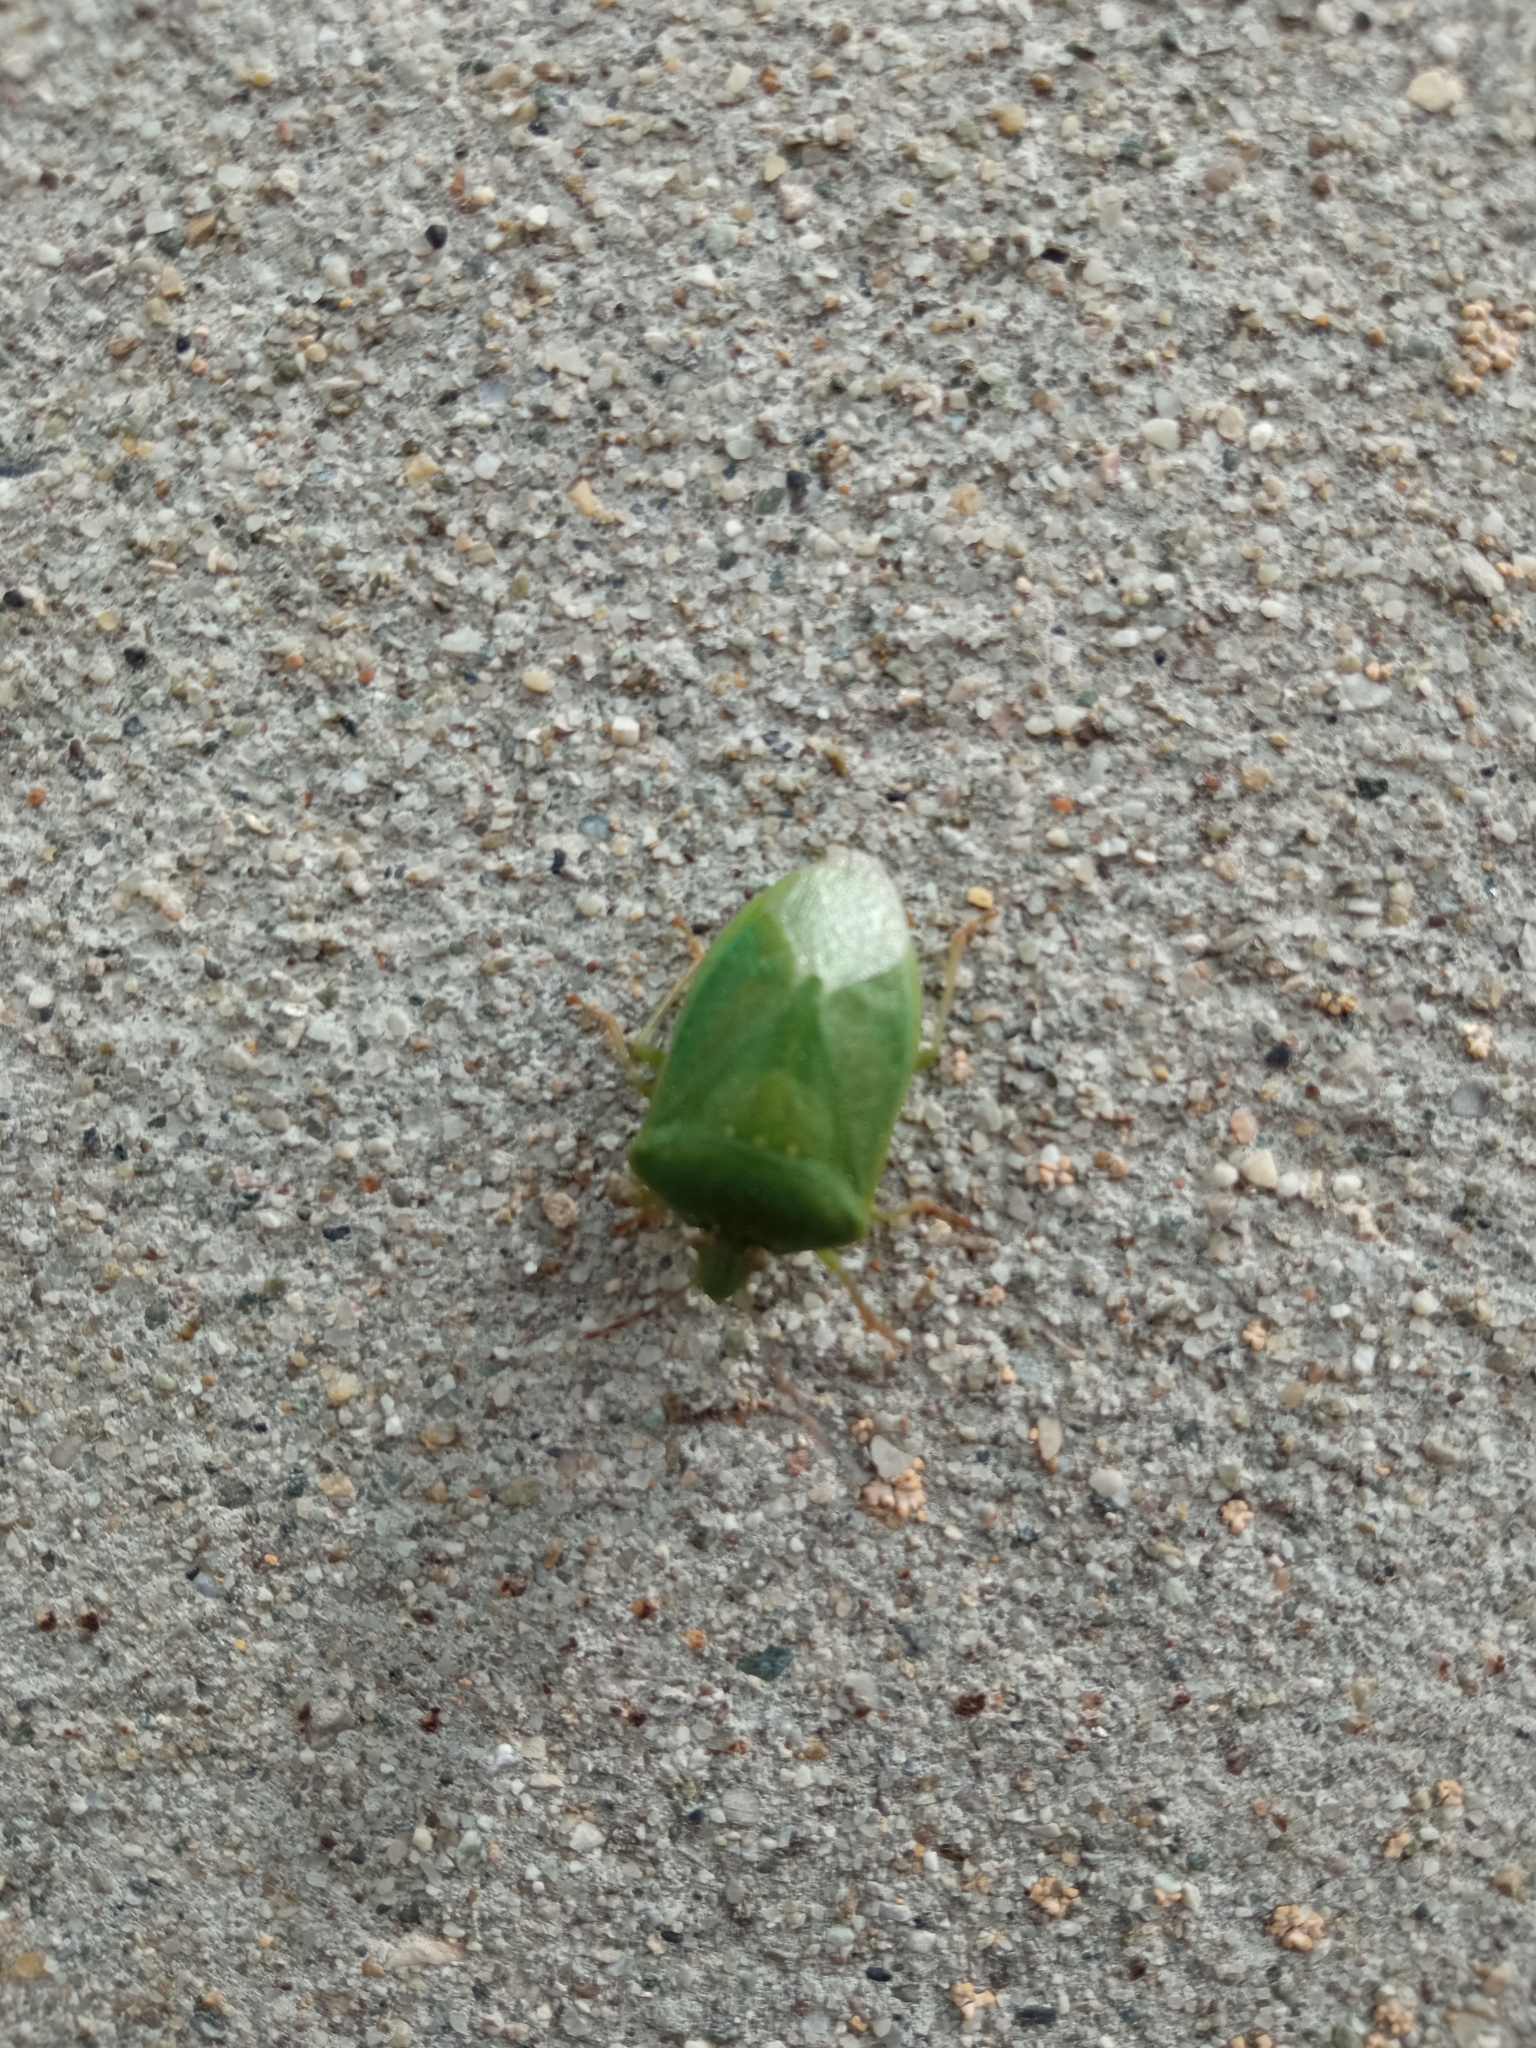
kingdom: Animalia
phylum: Arthropoda
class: Insecta
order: Hemiptera
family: Pentatomidae
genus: Nezara
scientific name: Nezara viridula
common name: Southern green stink bug
